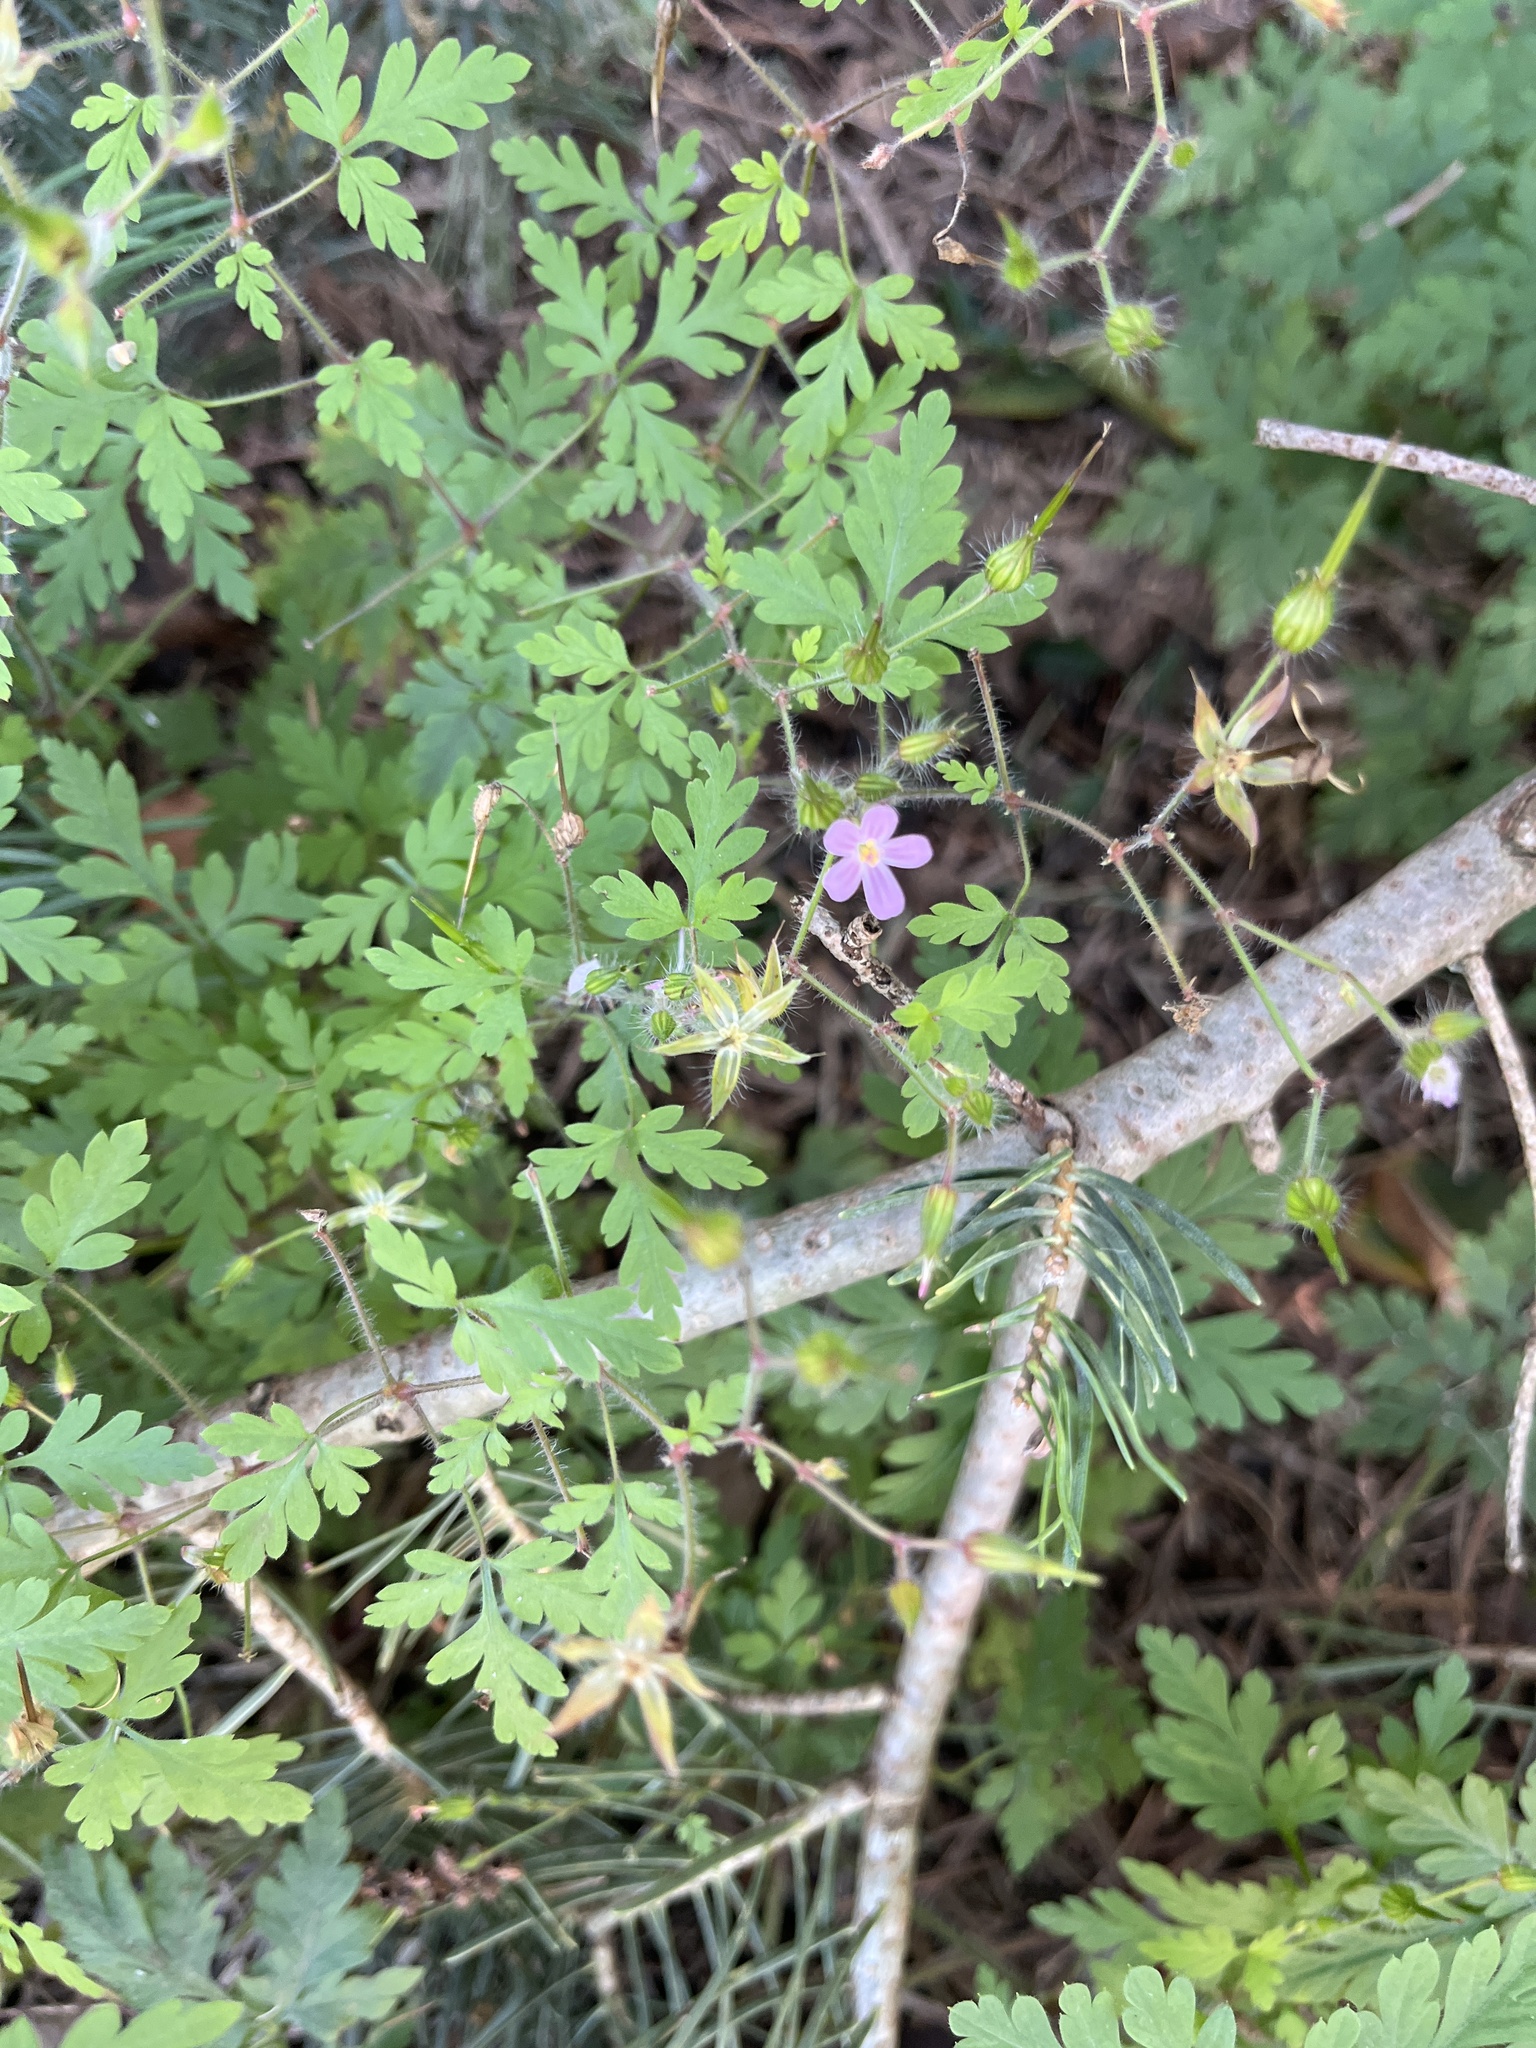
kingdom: Plantae
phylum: Tracheophyta
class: Magnoliopsida
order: Geraniales
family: Geraniaceae
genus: Geranium
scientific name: Geranium robertianum
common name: Herb-robert
